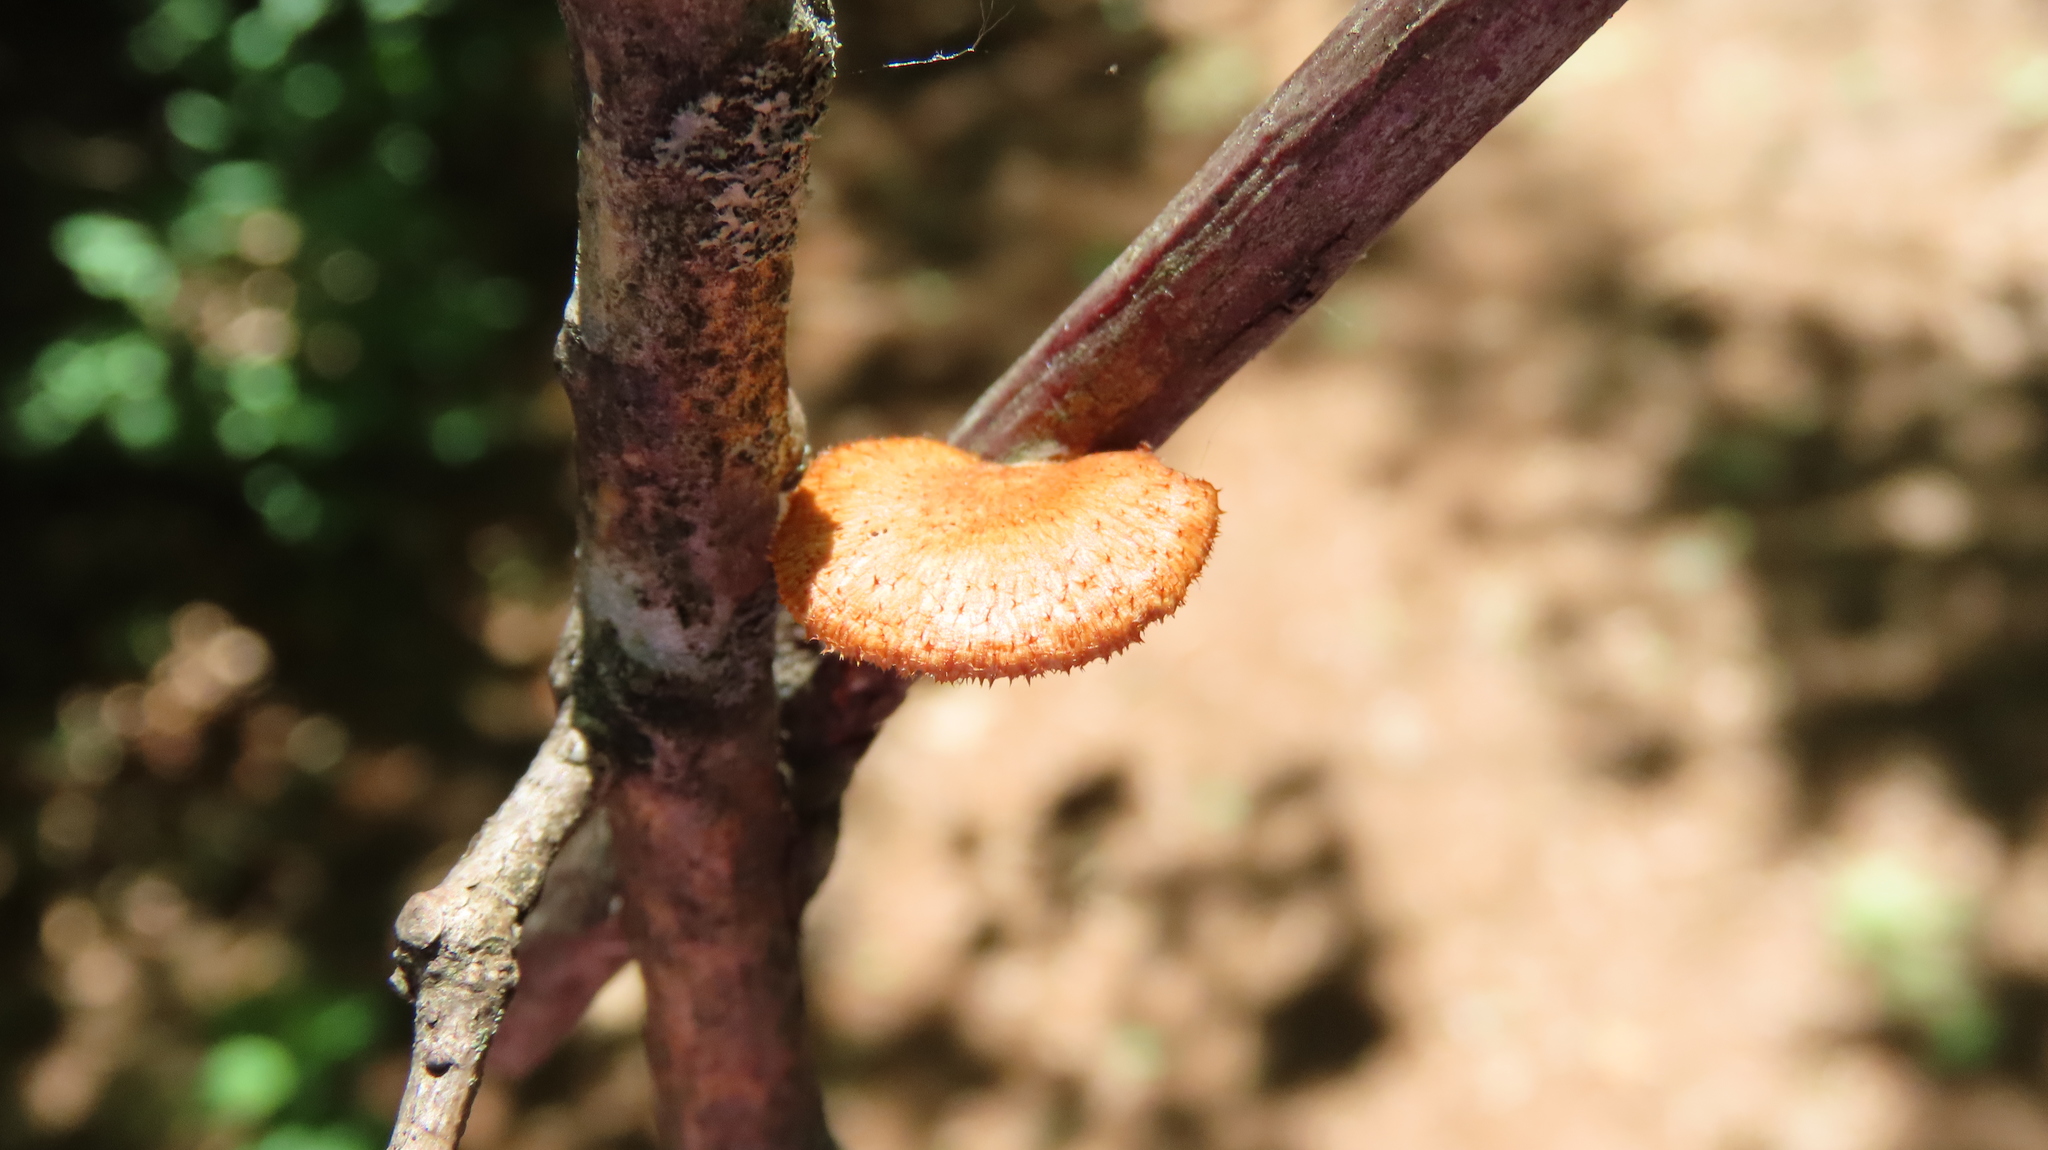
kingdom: Fungi
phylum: Basidiomycota
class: Agaricomycetes
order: Polyporales
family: Polyporaceae
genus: Neofavolus
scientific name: Neofavolus alveolaris
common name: Hexagonal-pored polypore
